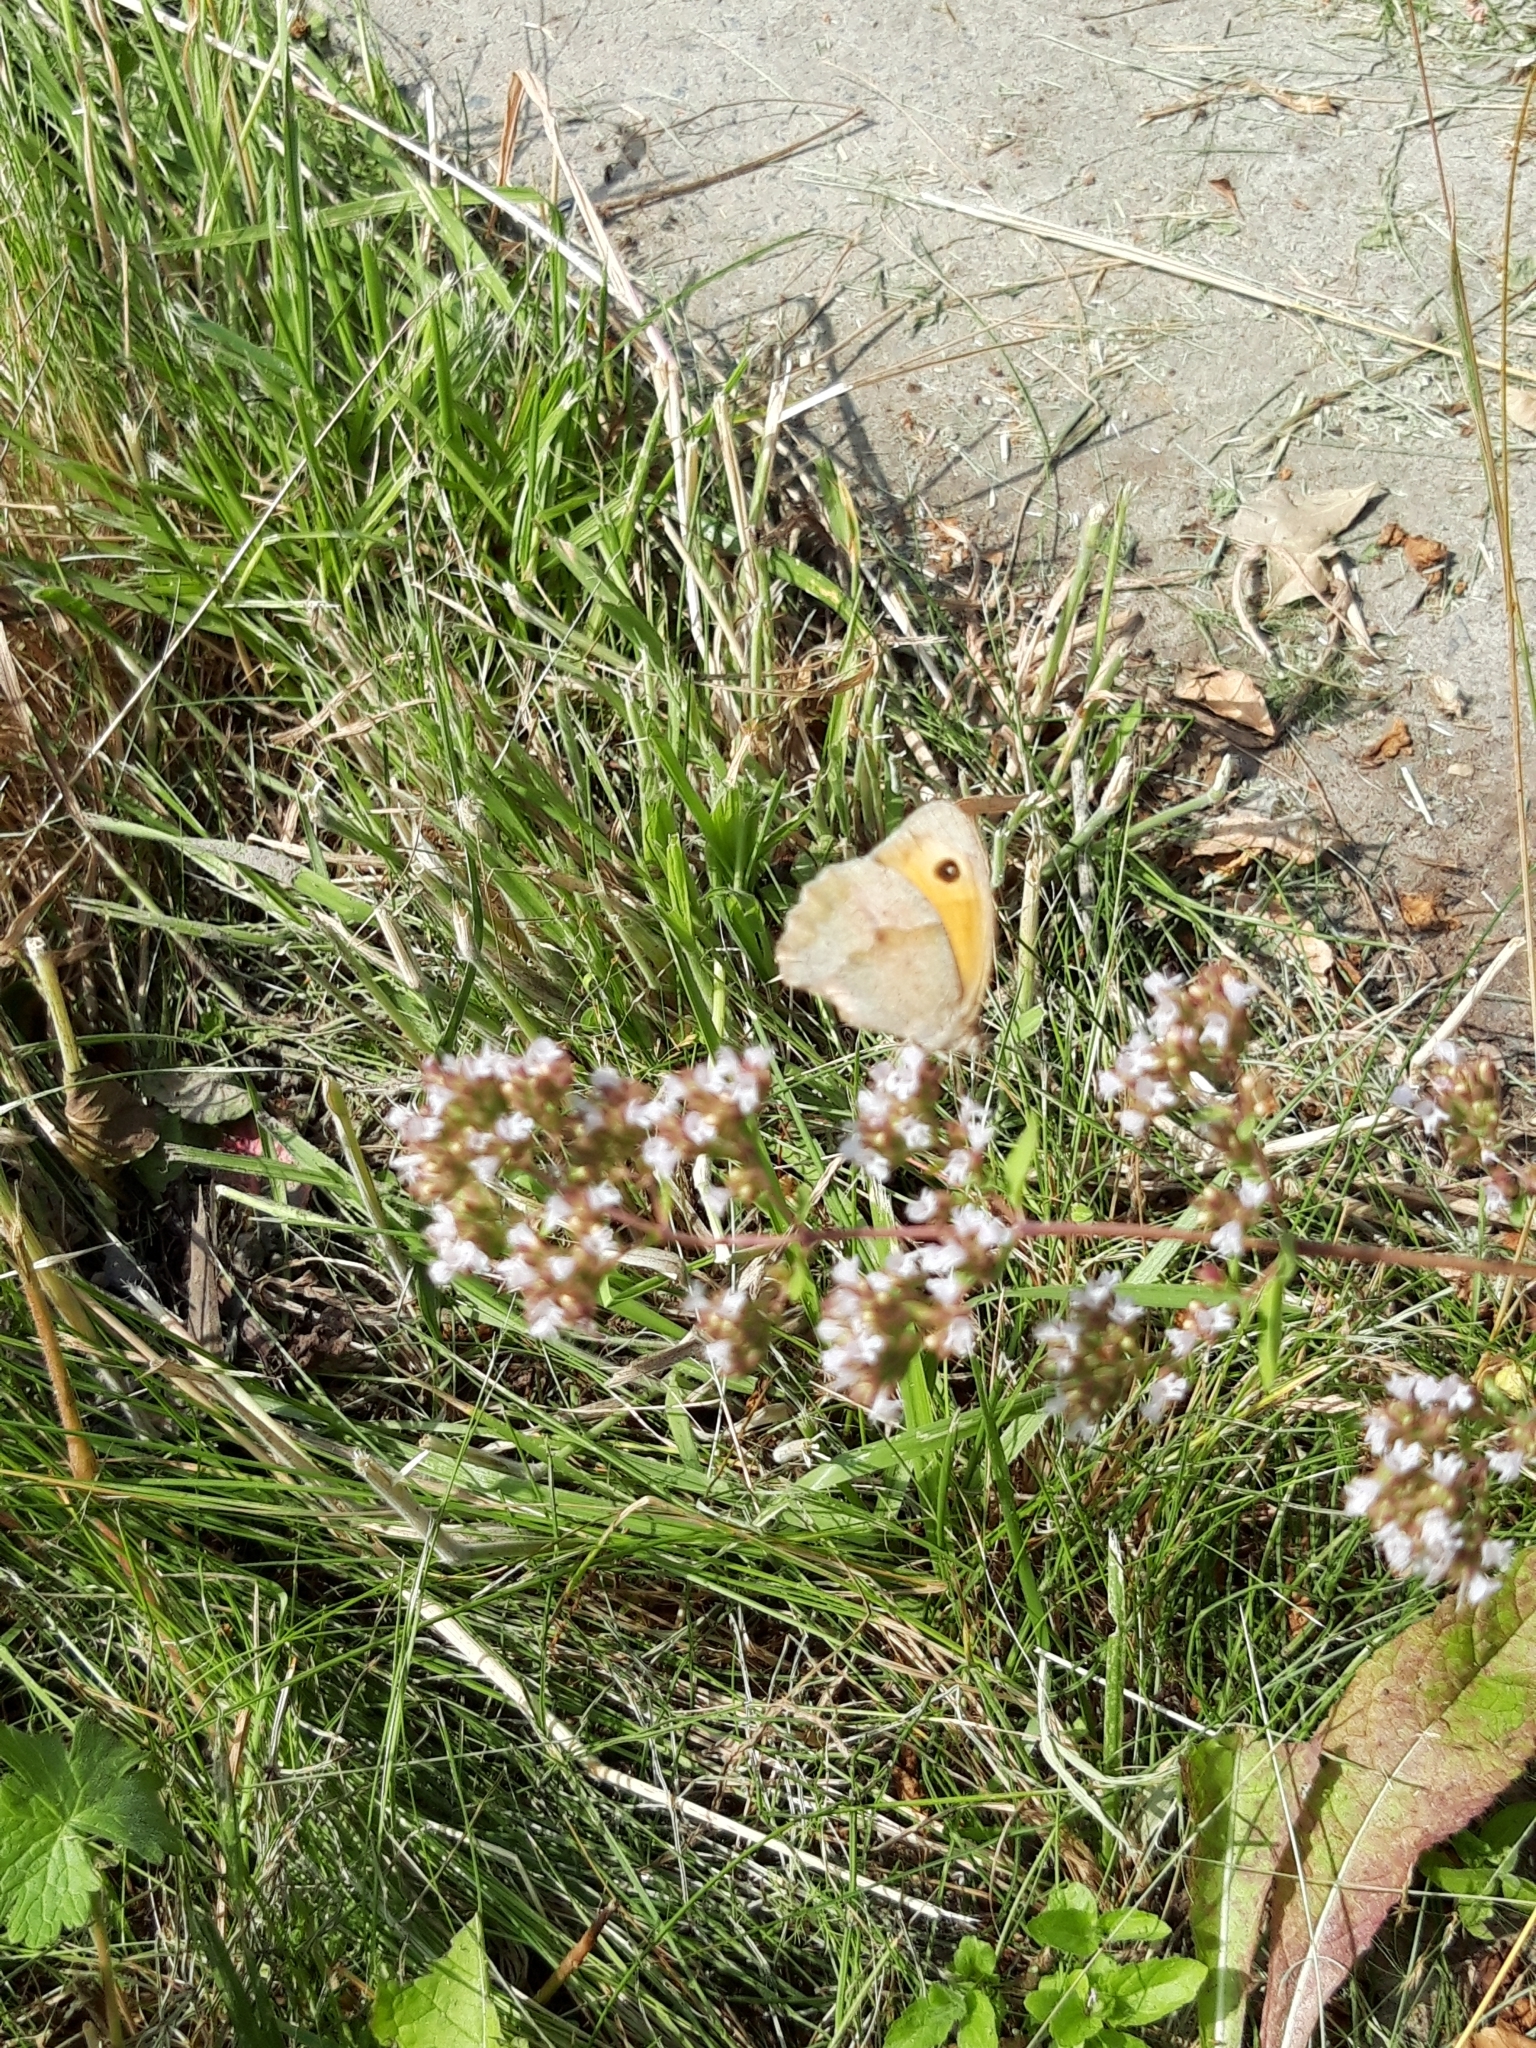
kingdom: Animalia
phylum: Arthropoda
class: Insecta
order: Lepidoptera
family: Nymphalidae
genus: Maniola
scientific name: Maniola jurtina
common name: Meadow brown
